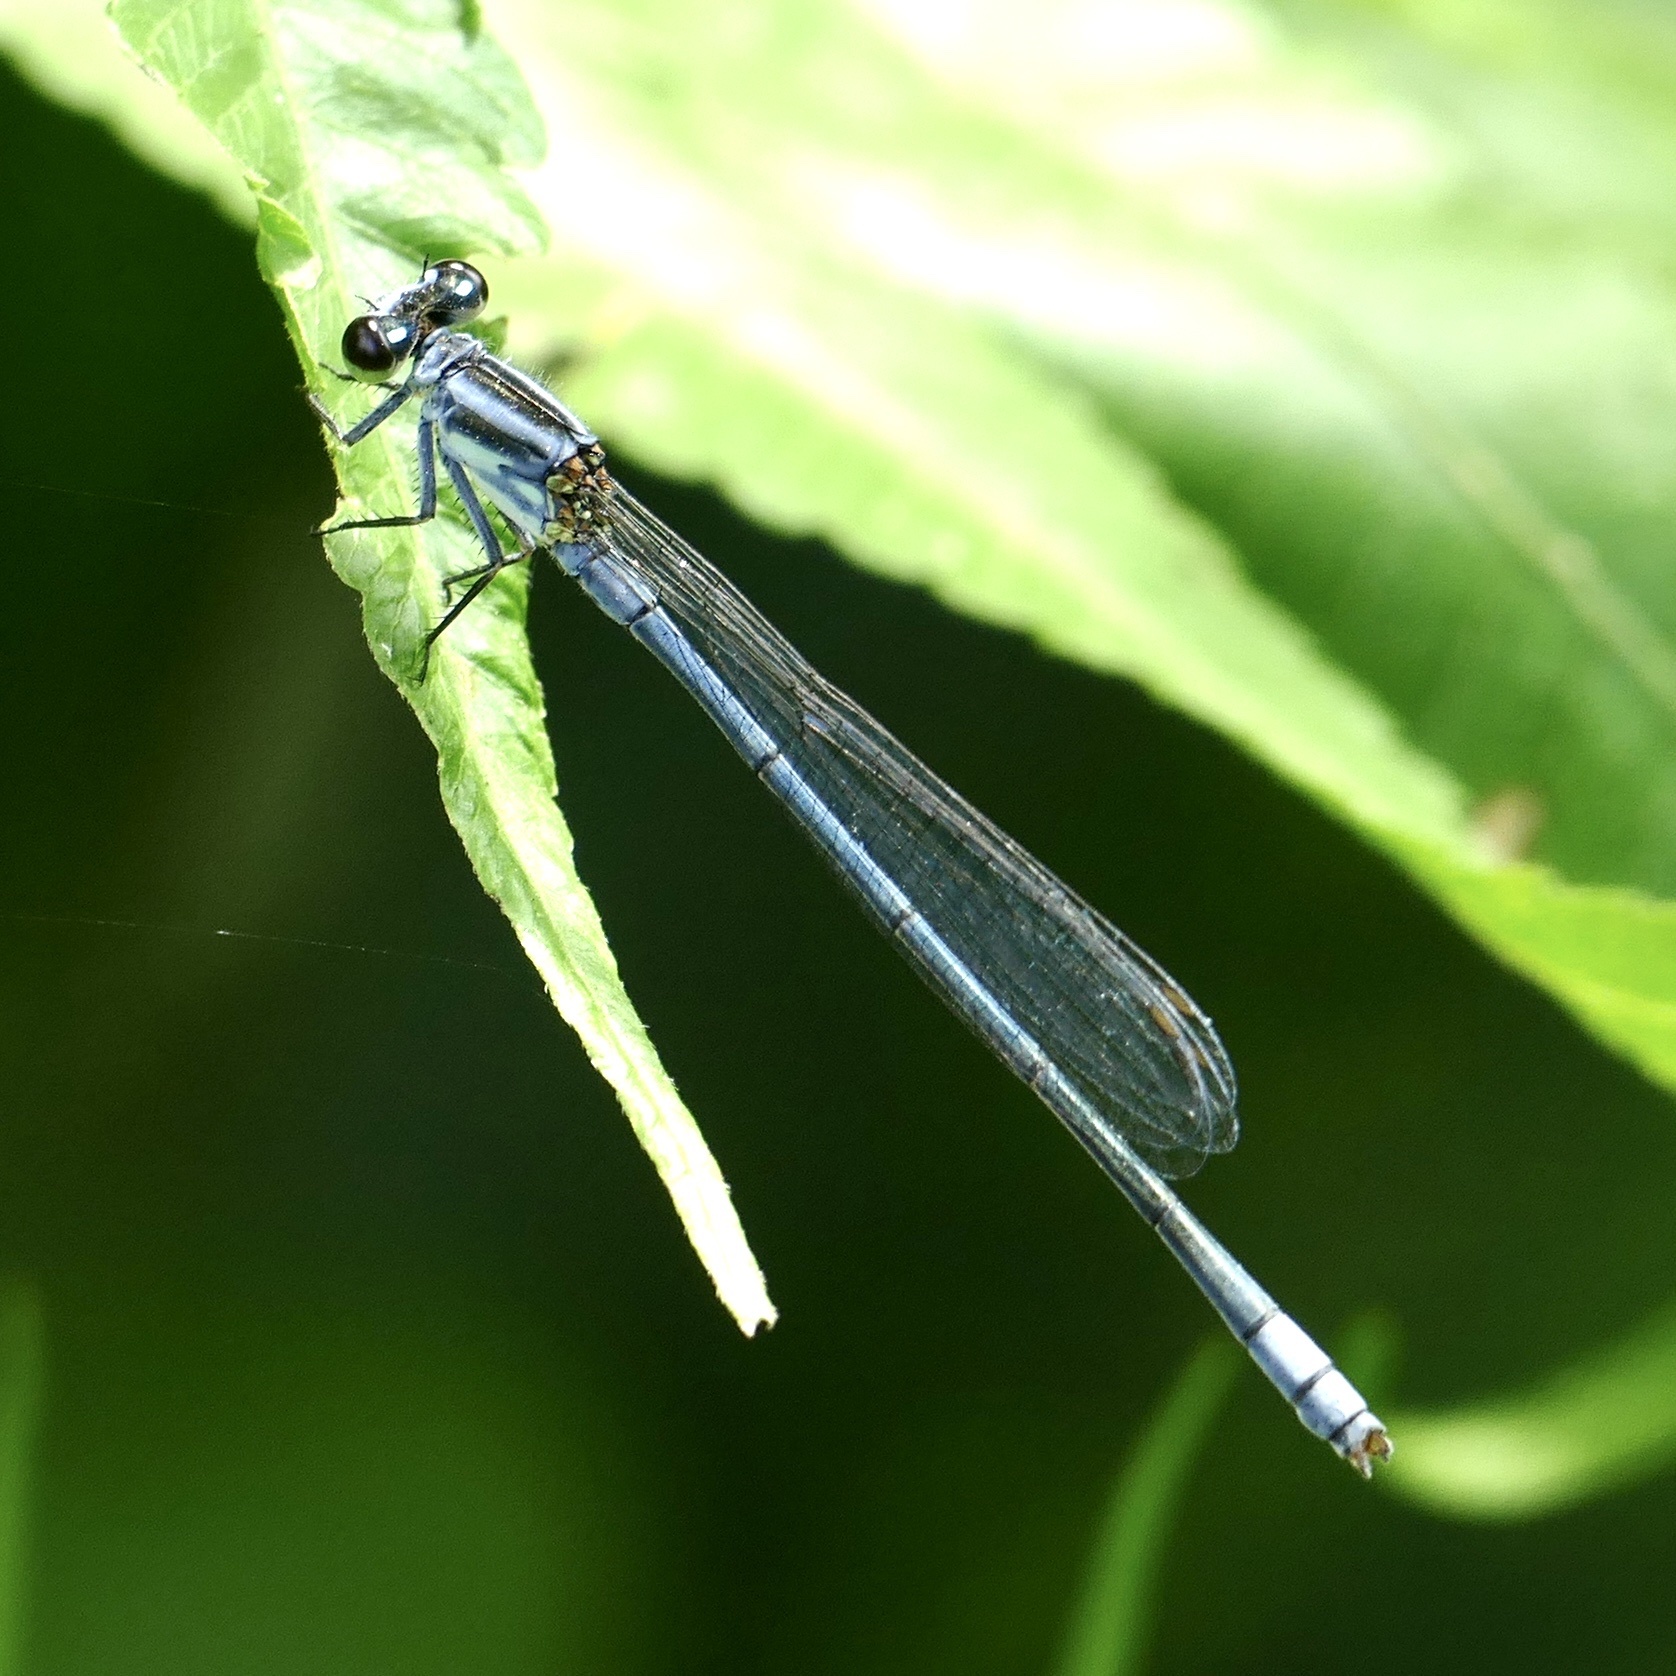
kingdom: Animalia
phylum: Arthropoda
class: Insecta
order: Odonata
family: Coenagrionidae
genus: Pseudagrion
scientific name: Pseudagrion kersteni
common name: Powder-faced sprite
